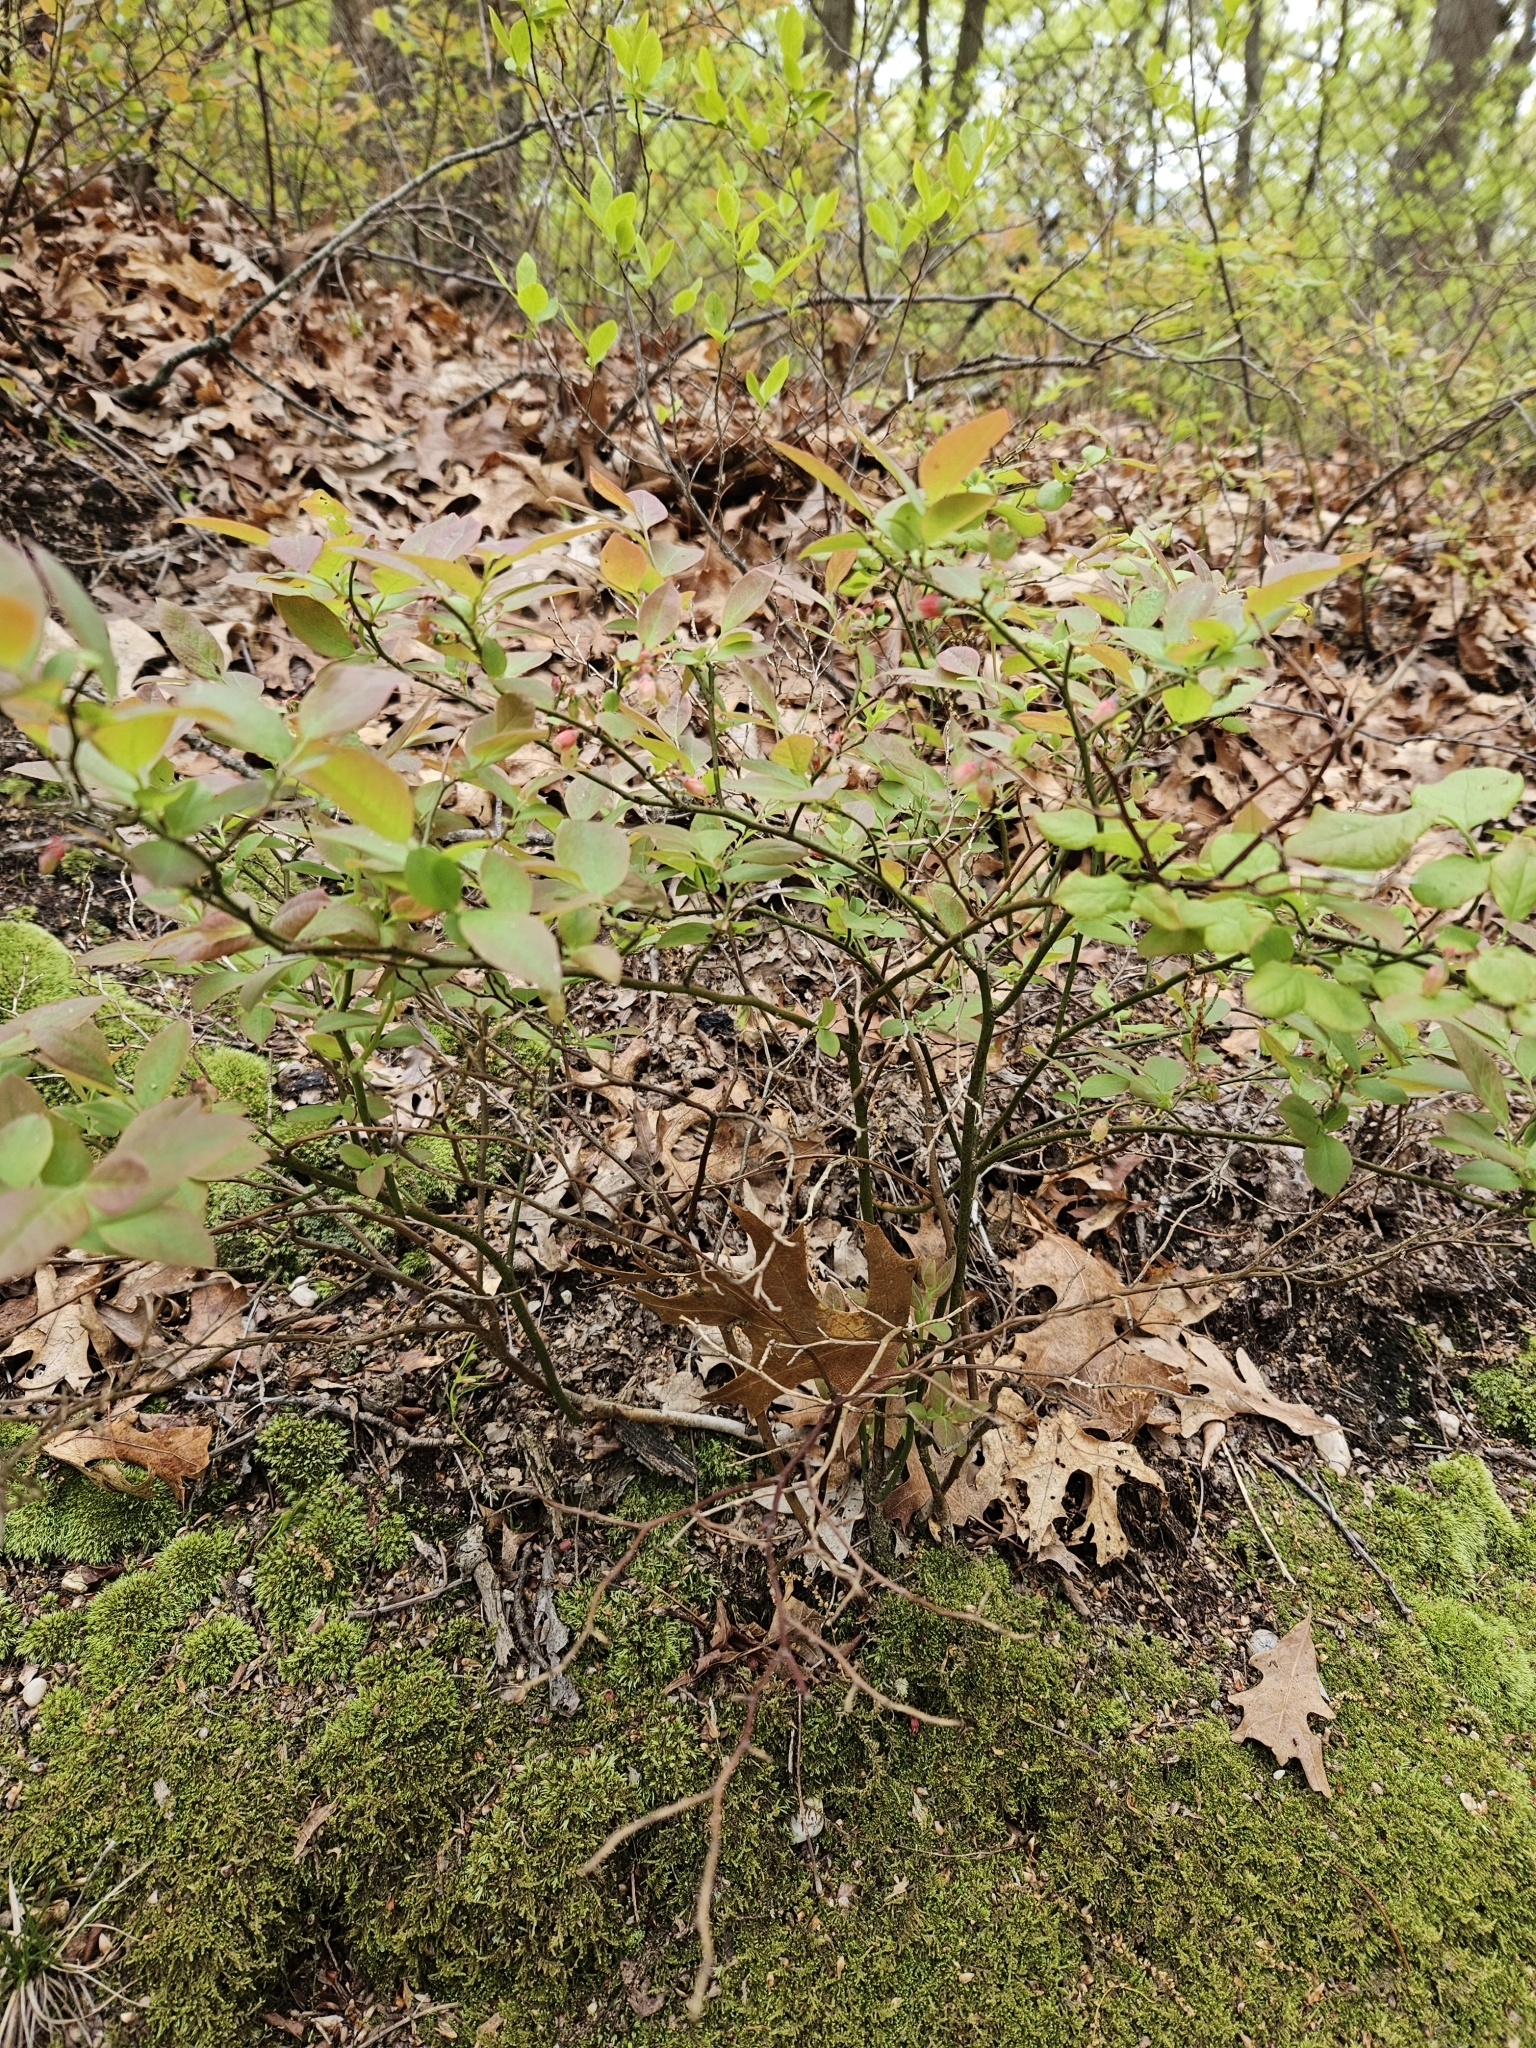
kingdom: Plantae
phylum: Tracheophyta
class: Magnoliopsida
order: Ericales
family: Ericaceae
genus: Vaccinium
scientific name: Vaccinium pallidum
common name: Blue ridge blueberry
